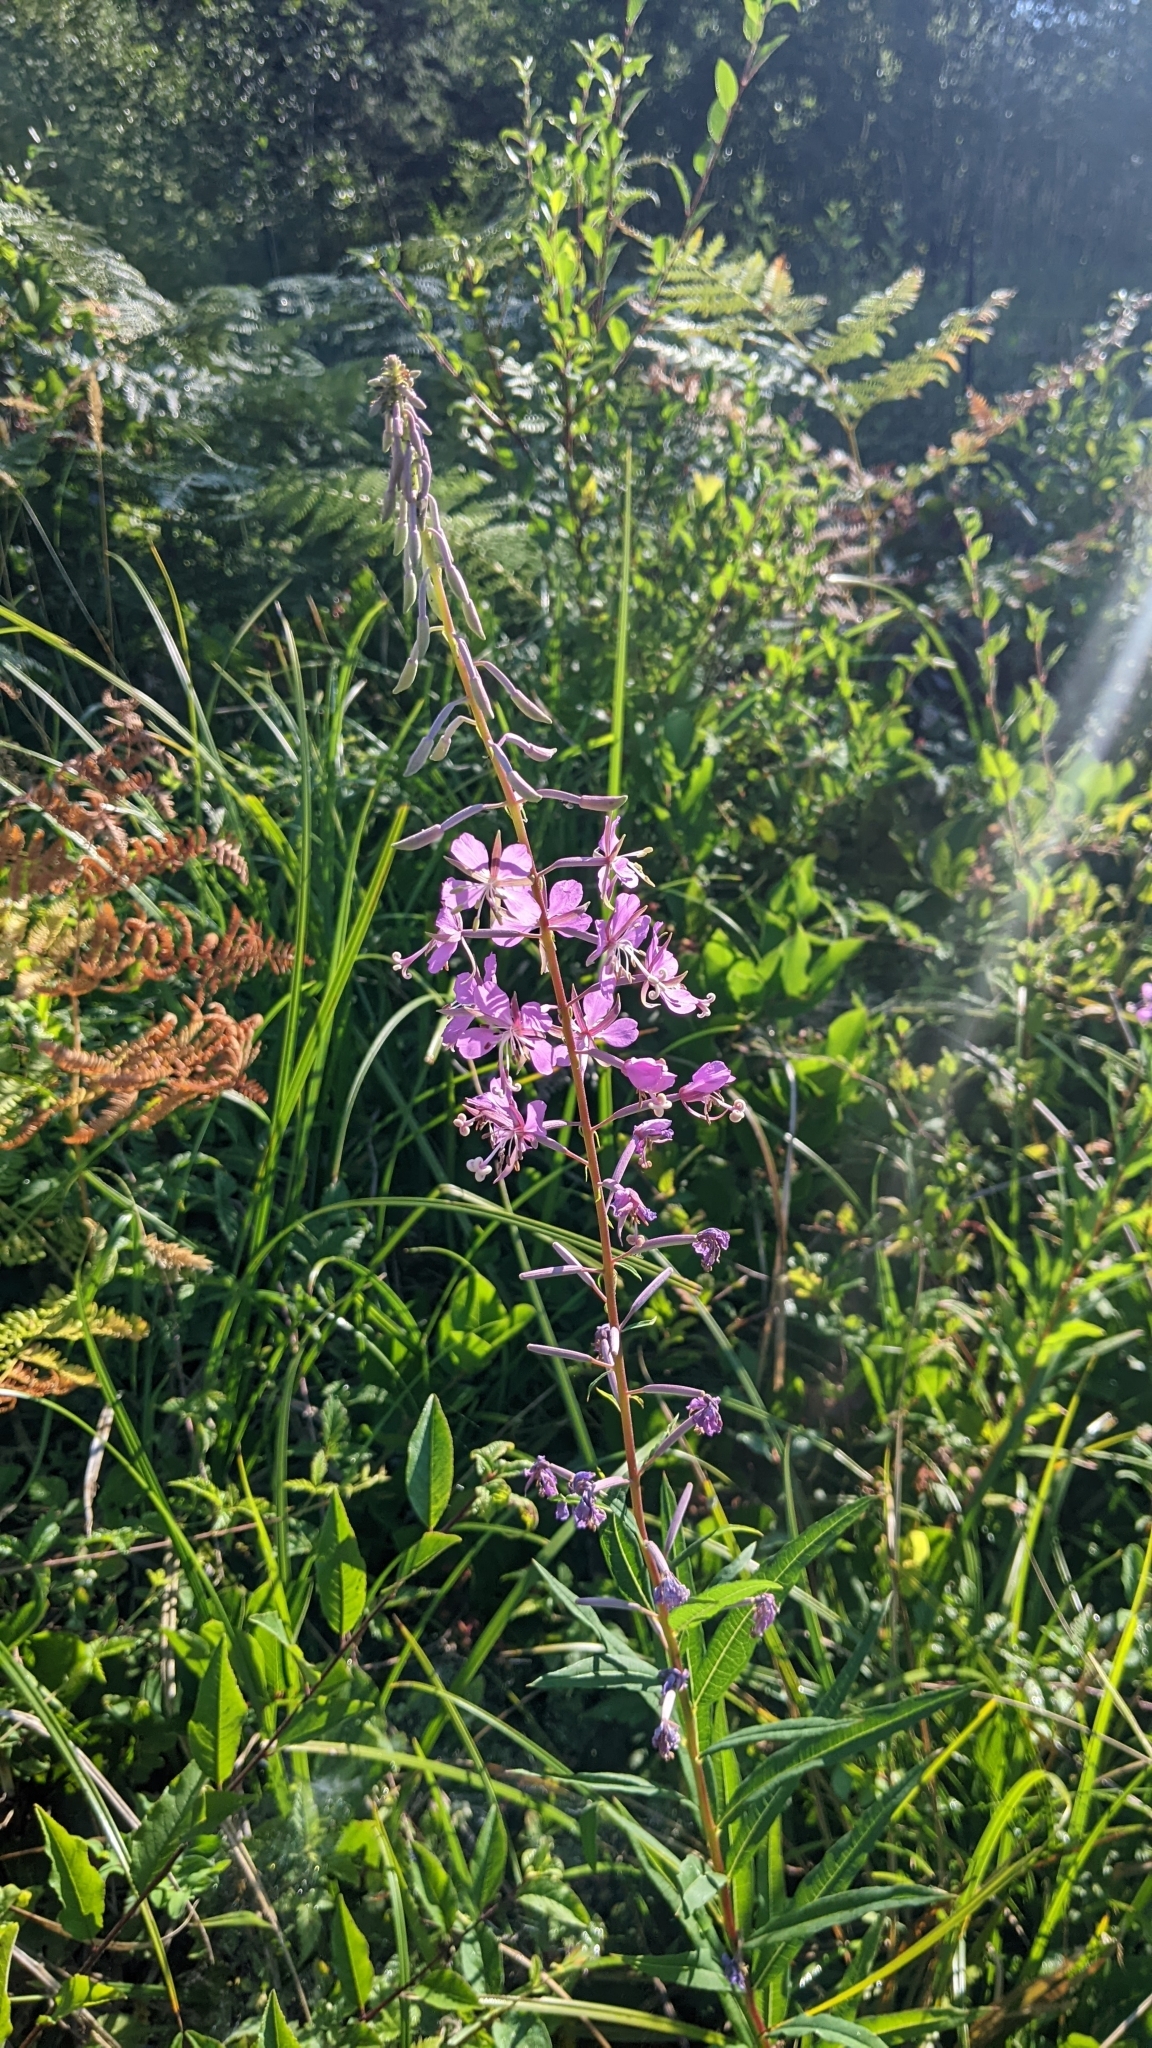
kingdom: Plantae
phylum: Tracheophyta
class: Magnoliopsida
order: Myrtales
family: Onagraceae
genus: Chamaenerion
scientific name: Chamaenerion angustifolium
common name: Fireweed
